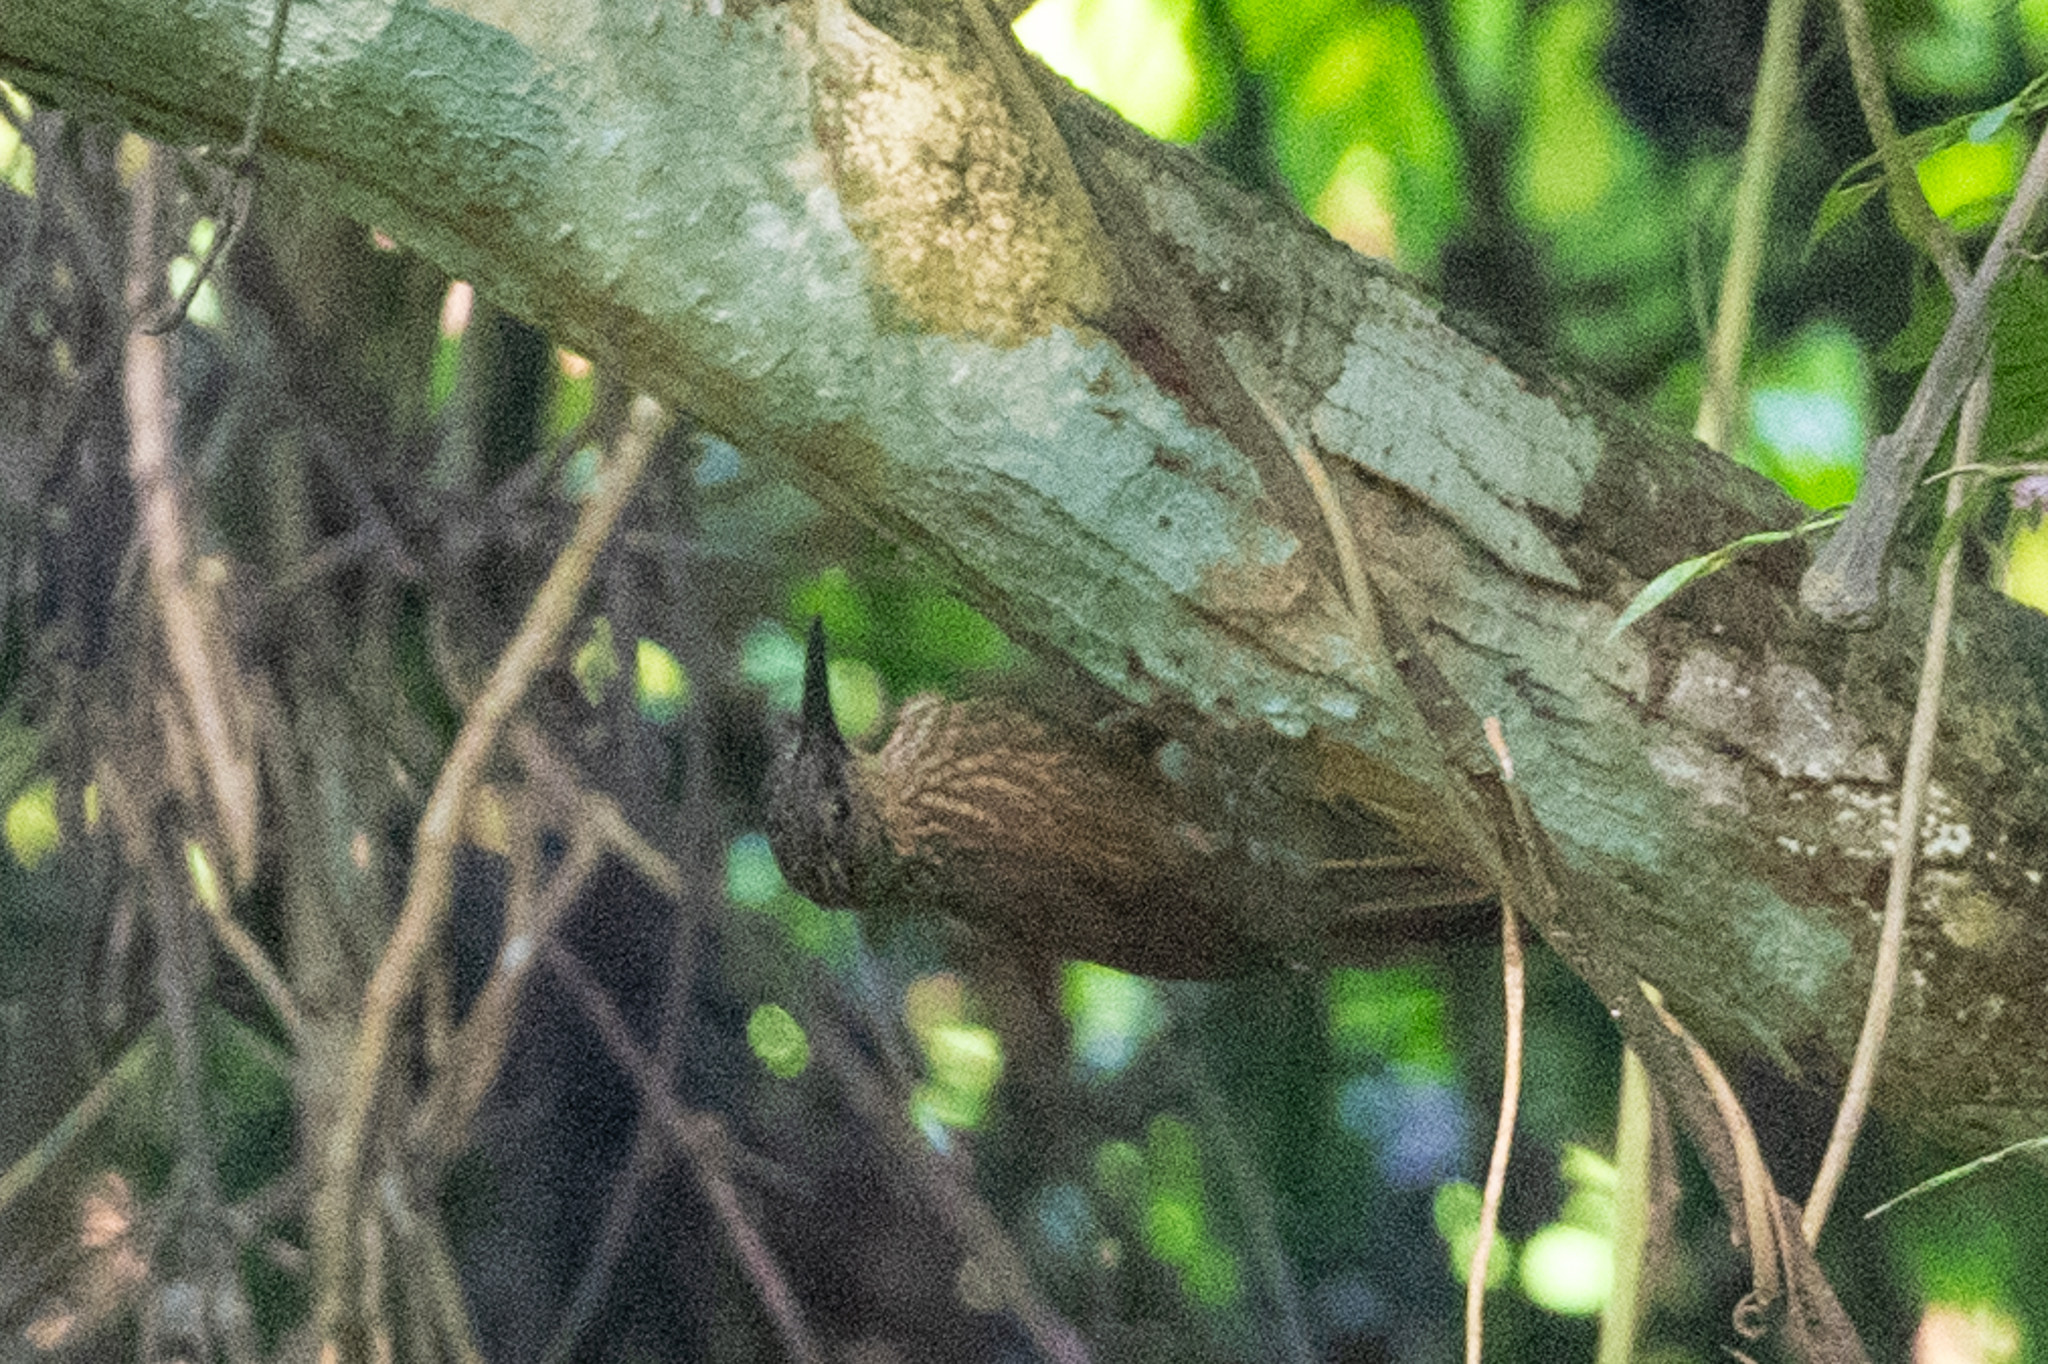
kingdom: Animalia
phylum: Chordata
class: Aves
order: Passeriformes
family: Furnariidae
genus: Xiphorhynchus
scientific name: Xiphorhynchus susurrans
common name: Cocoa woodcreeper
